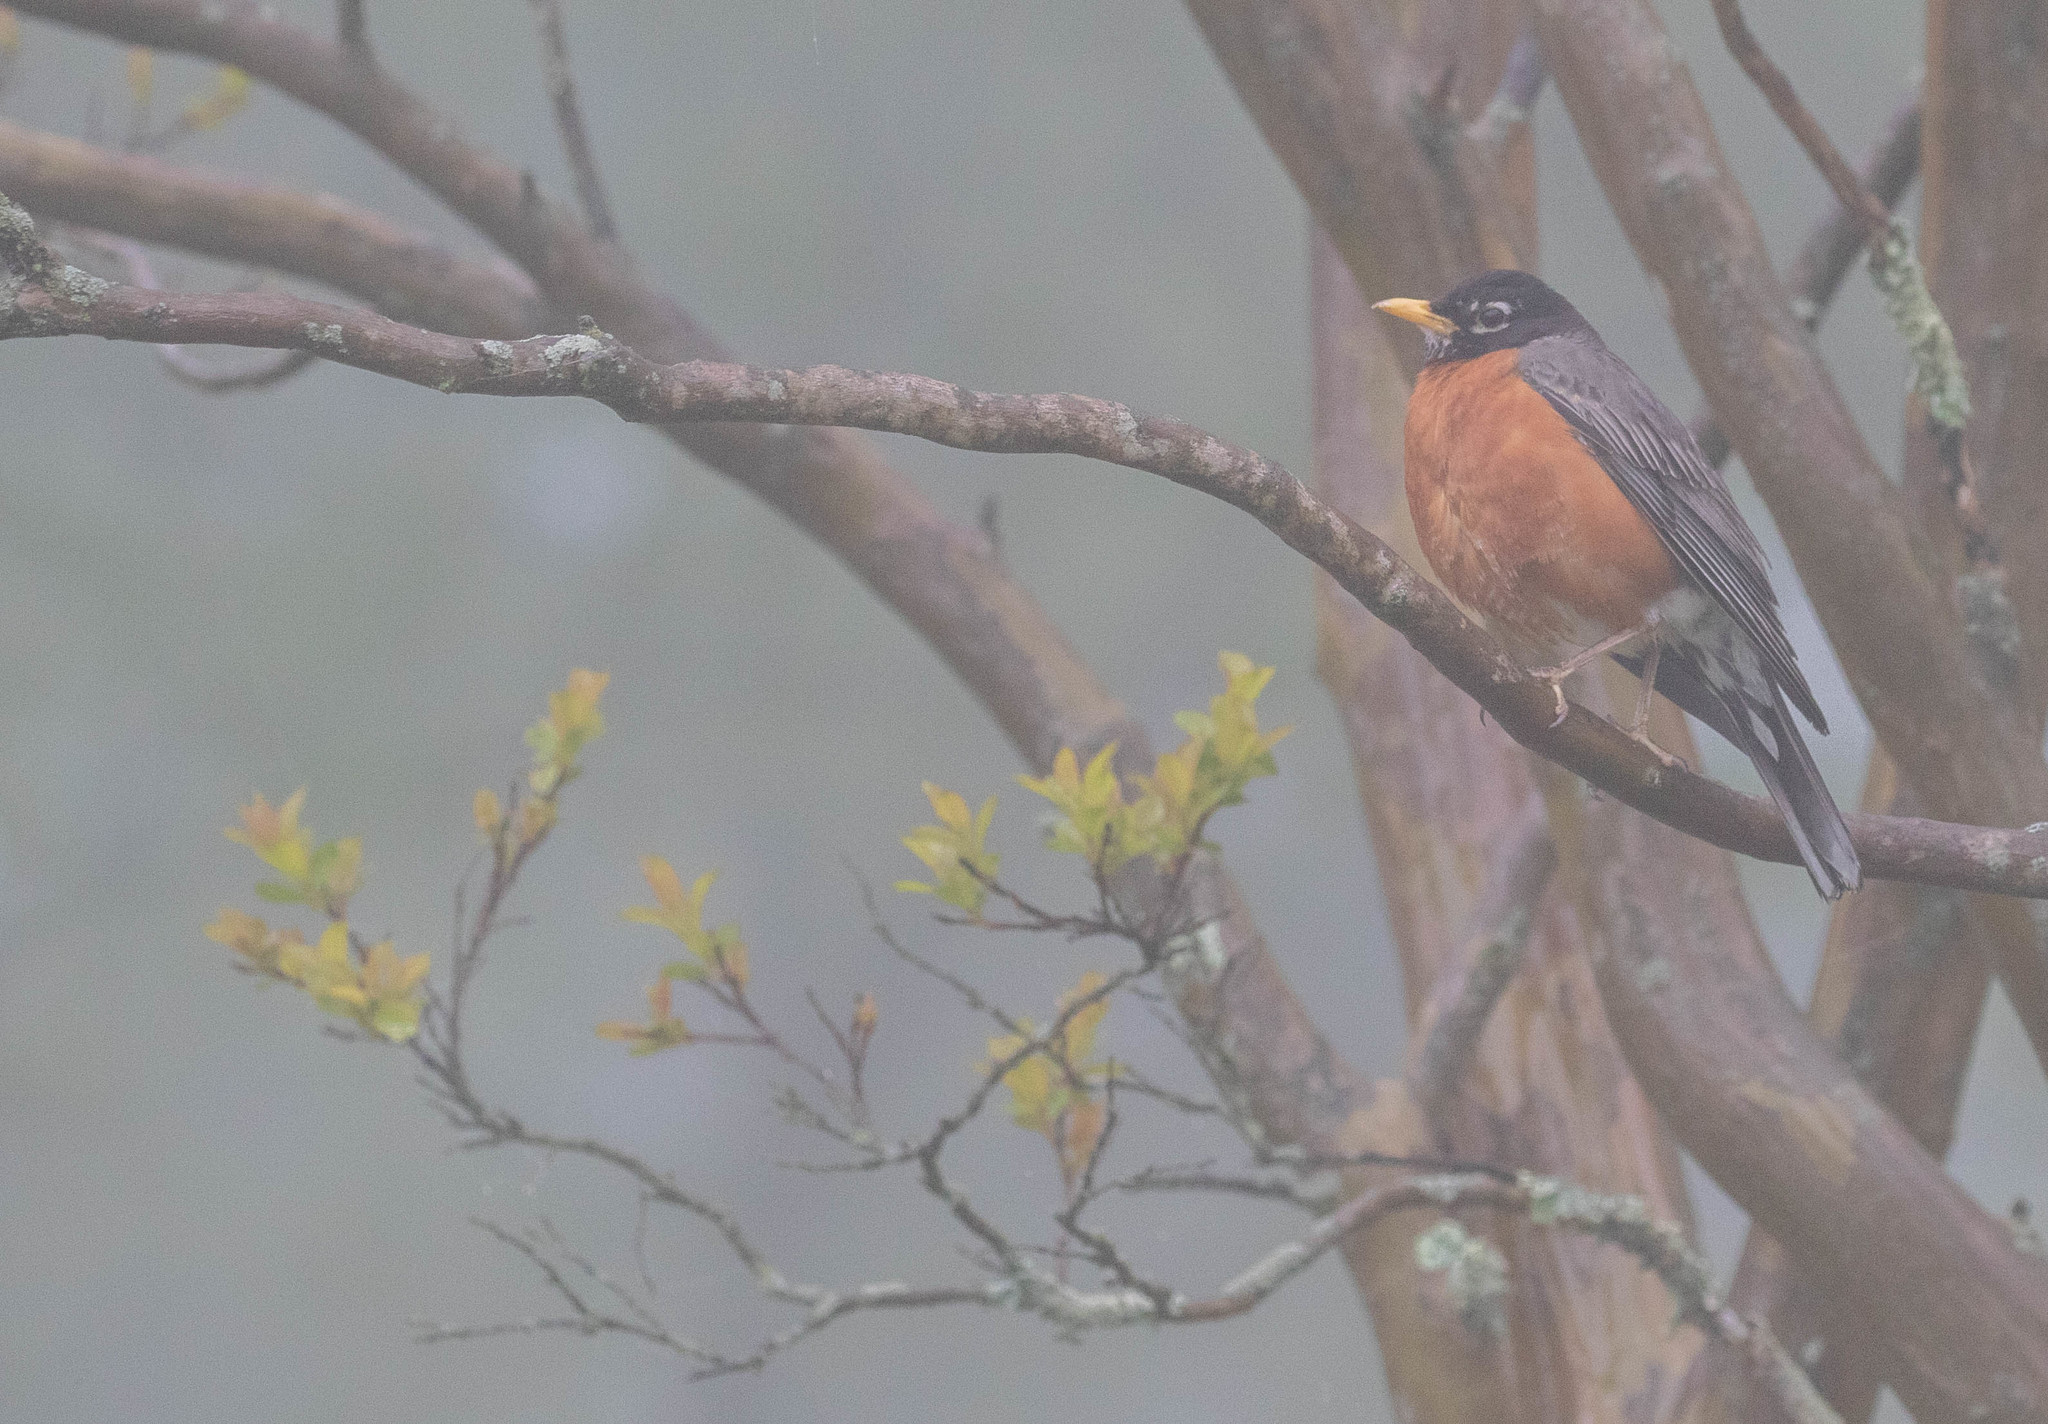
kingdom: Animalia
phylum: Chordata
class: Aves
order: Passeriformes
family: Turdidae
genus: Turdus
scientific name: Turdus migratorius
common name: American robin
